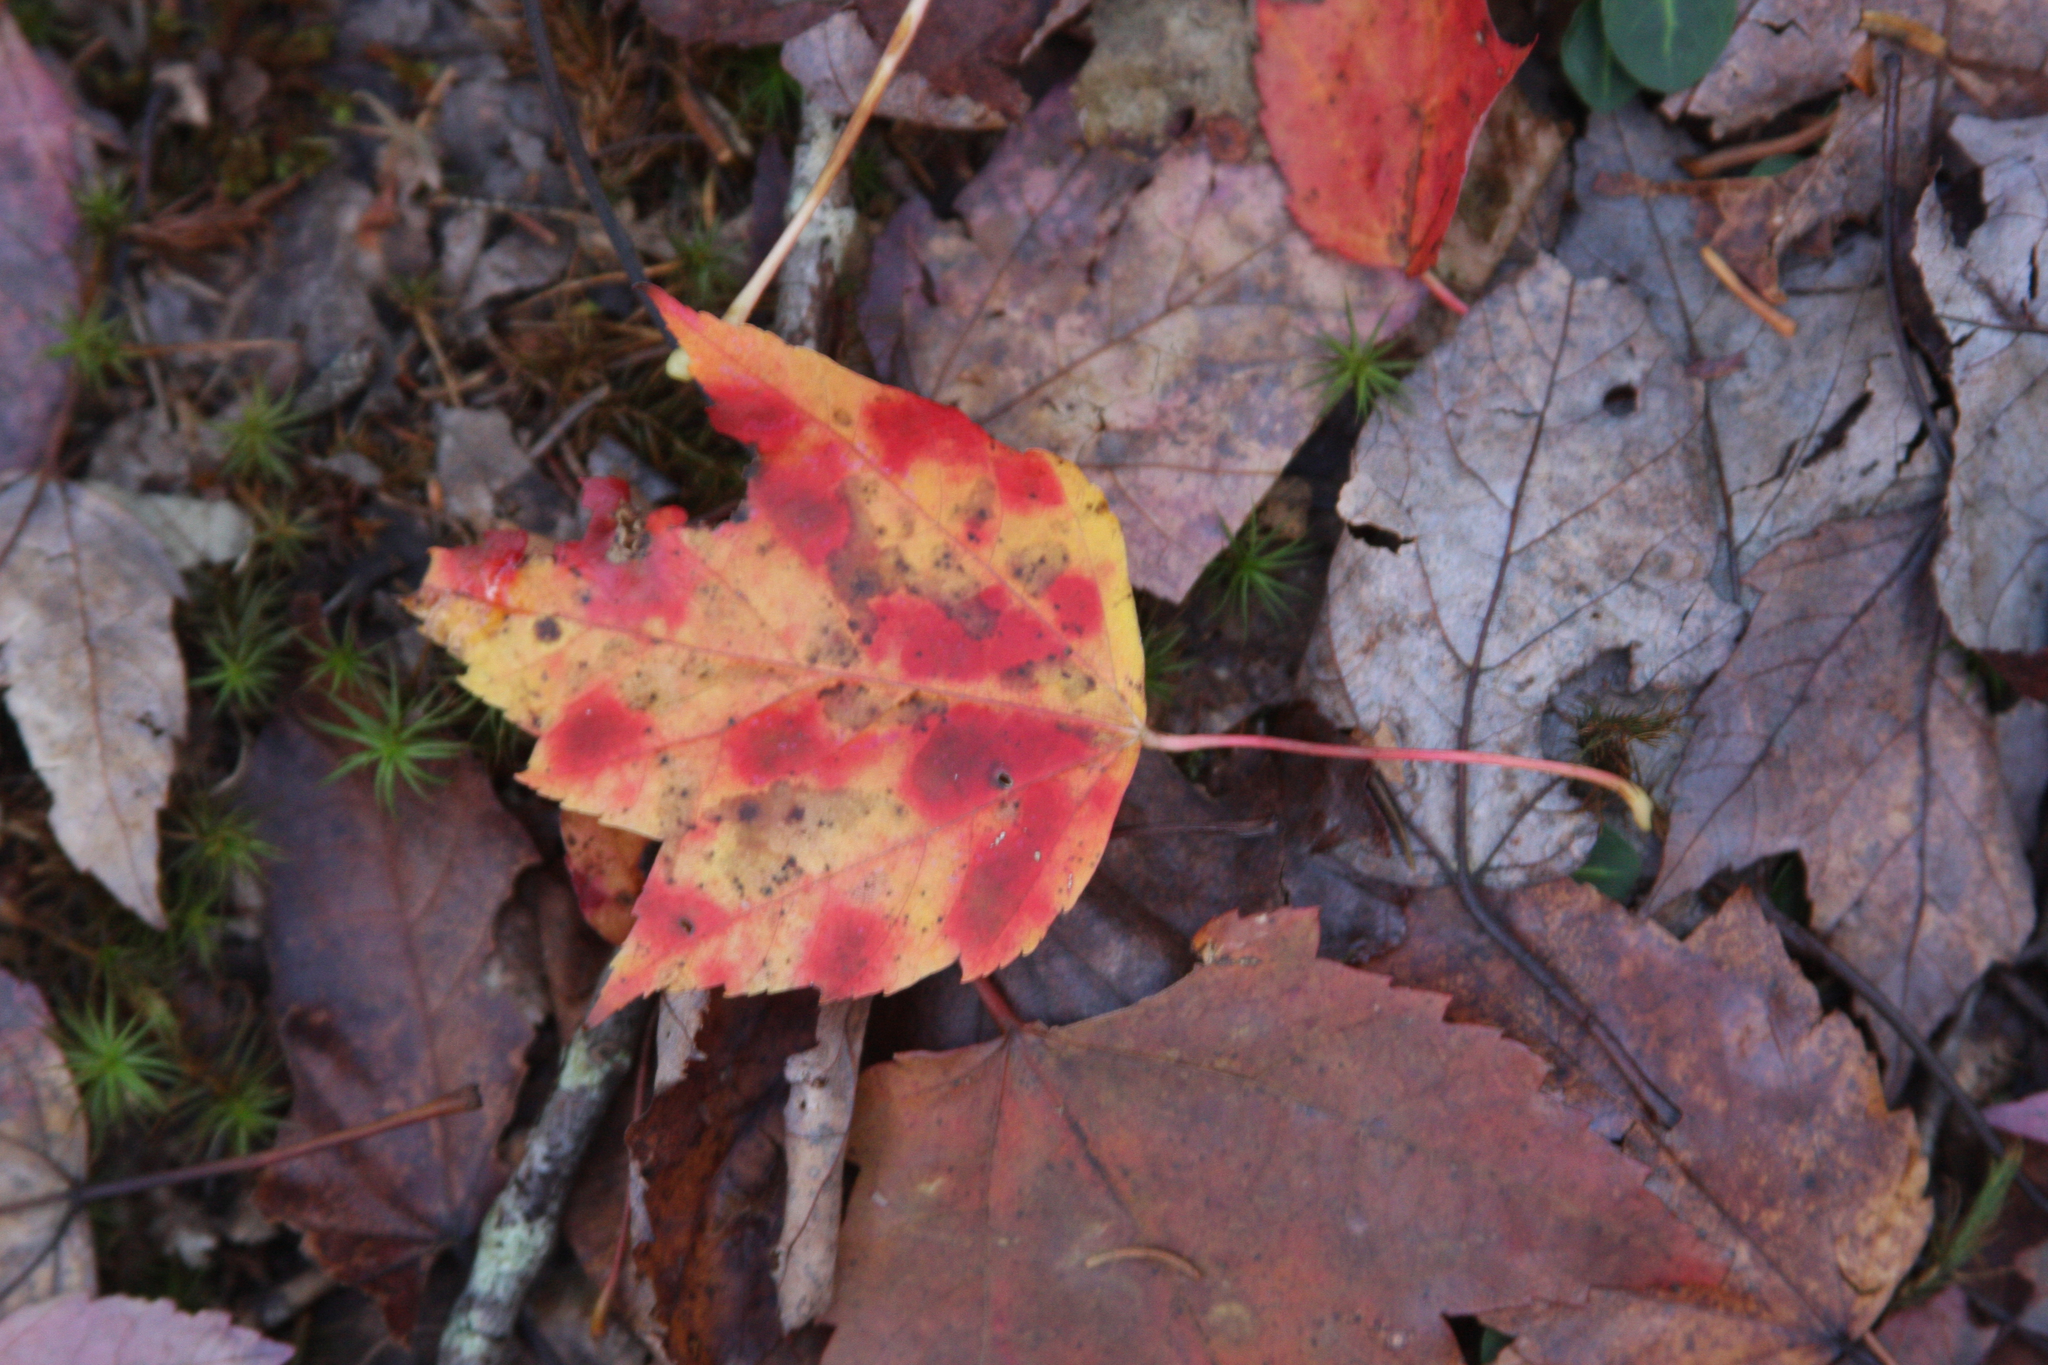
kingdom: Plantae
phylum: Tracheophyta
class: Magnoliopsida
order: Sapindales
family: Sapindaceae
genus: Acer
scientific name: Acer rubrum
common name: Red maple
